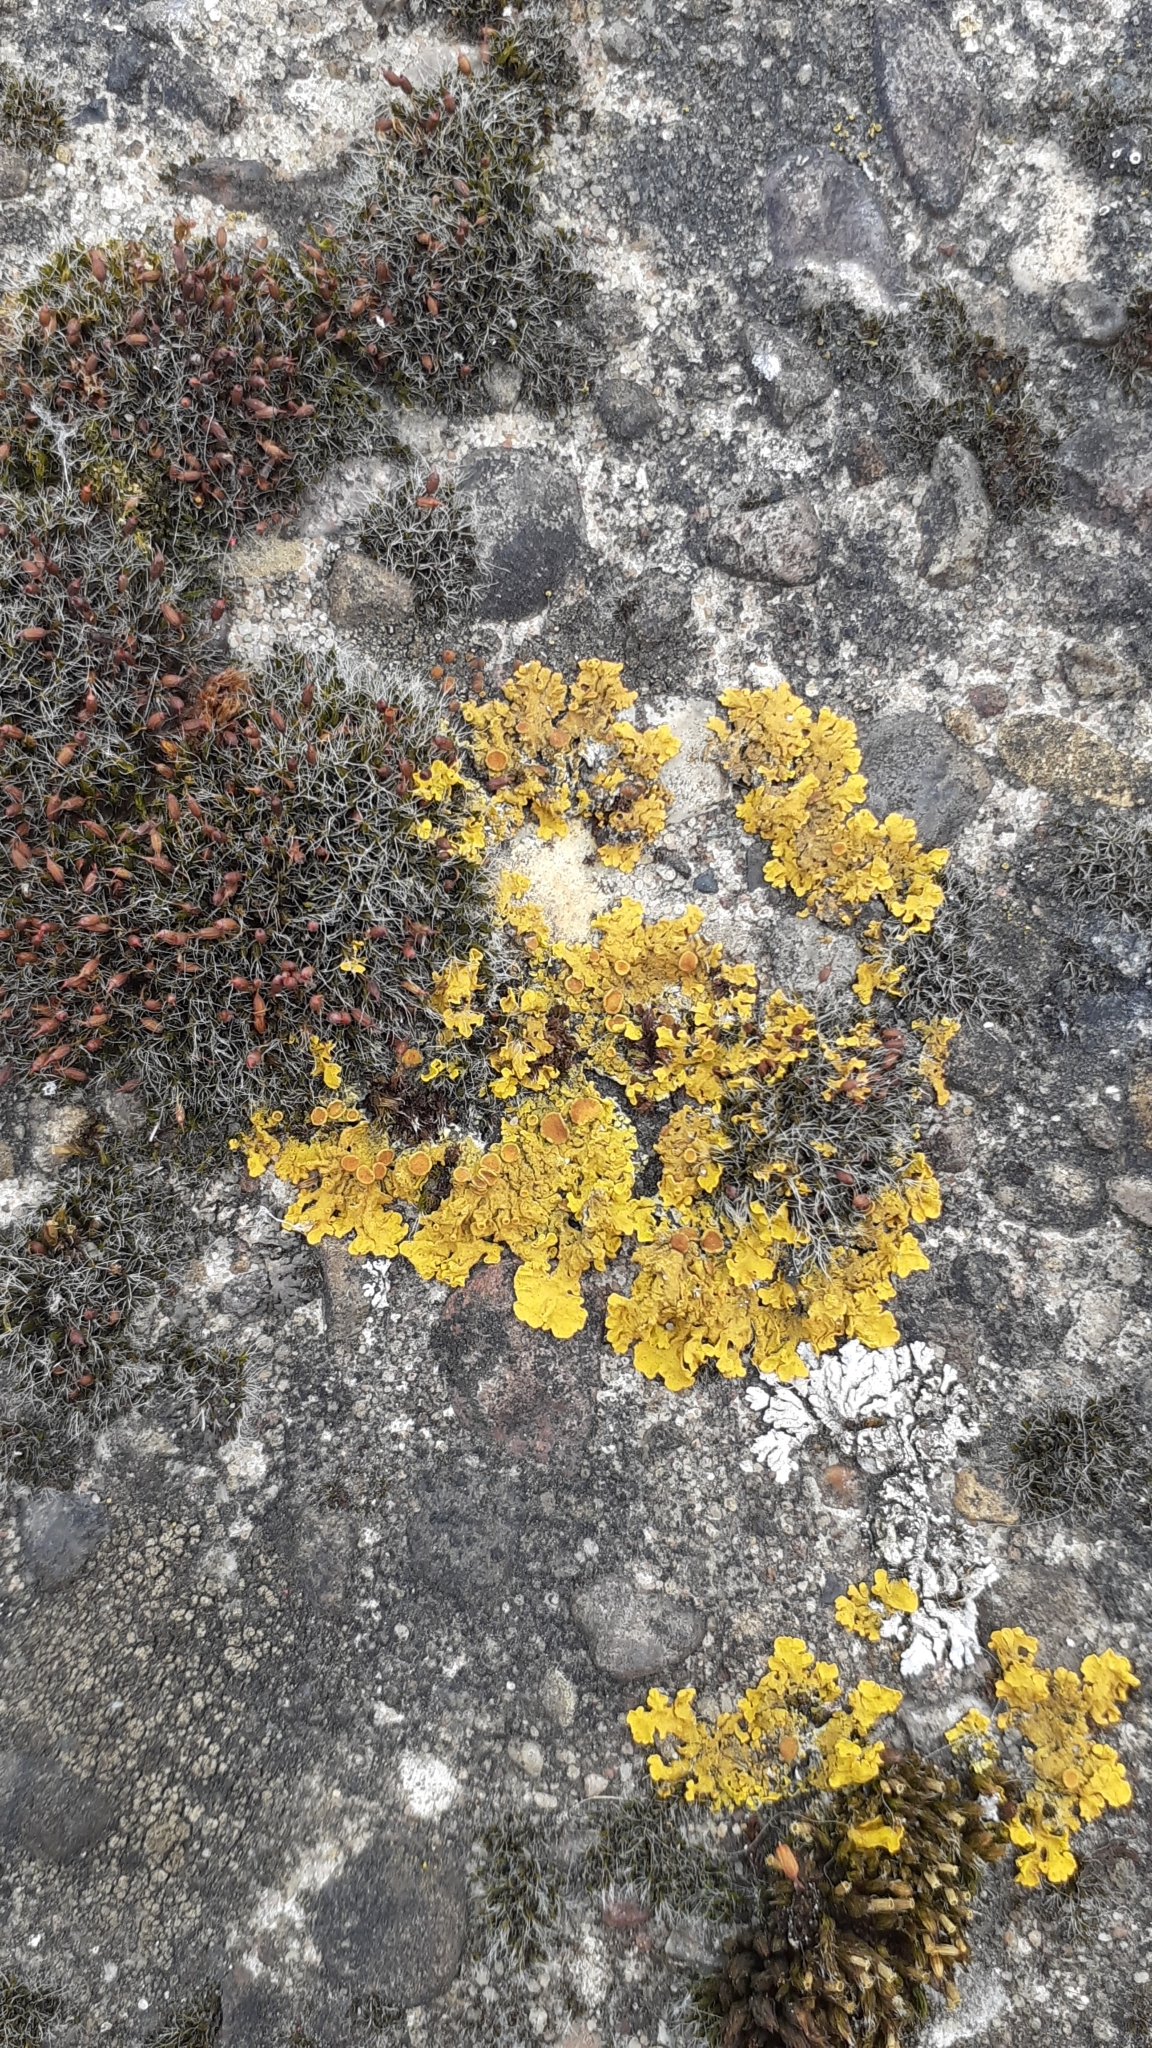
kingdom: Fungi
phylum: Ascomycota
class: Lecanoromycetes
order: Teloschistales
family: Teloschistaceae
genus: Xanthoria
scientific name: Xanthoria parietina
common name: Common orange lichen
